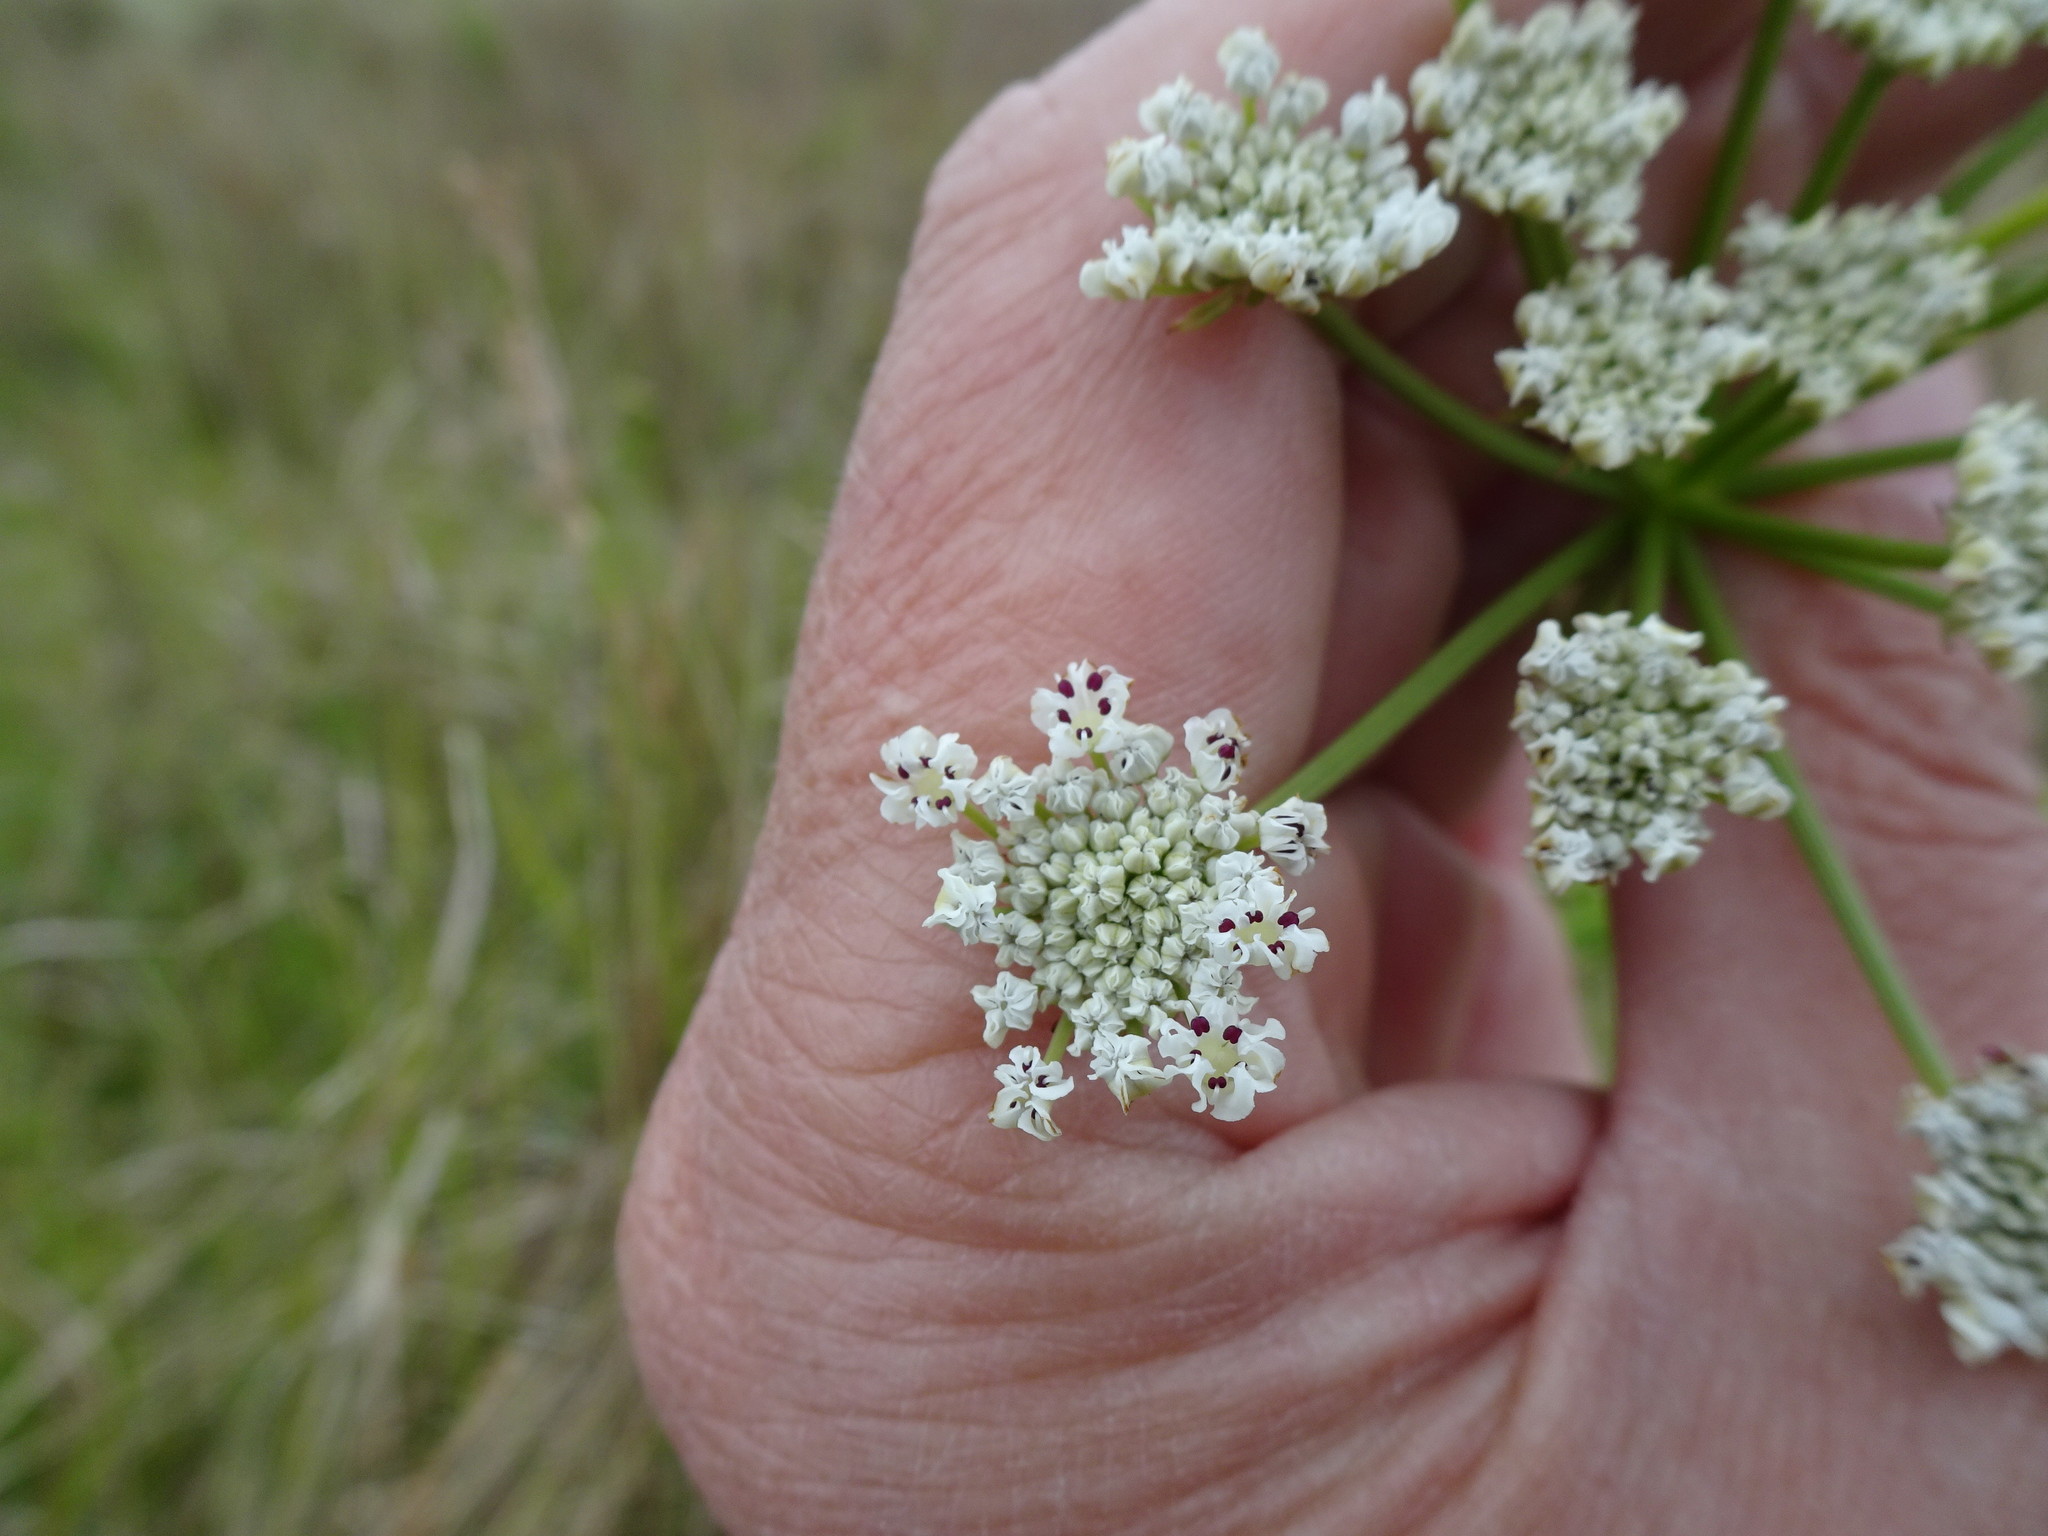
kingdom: Plantae
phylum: Tracheophyta
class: Magnoliopsida
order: Apiales
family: Apiaceae
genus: Oenanthe
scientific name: Oenanthe crocata
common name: Hemlock water-dropwort
